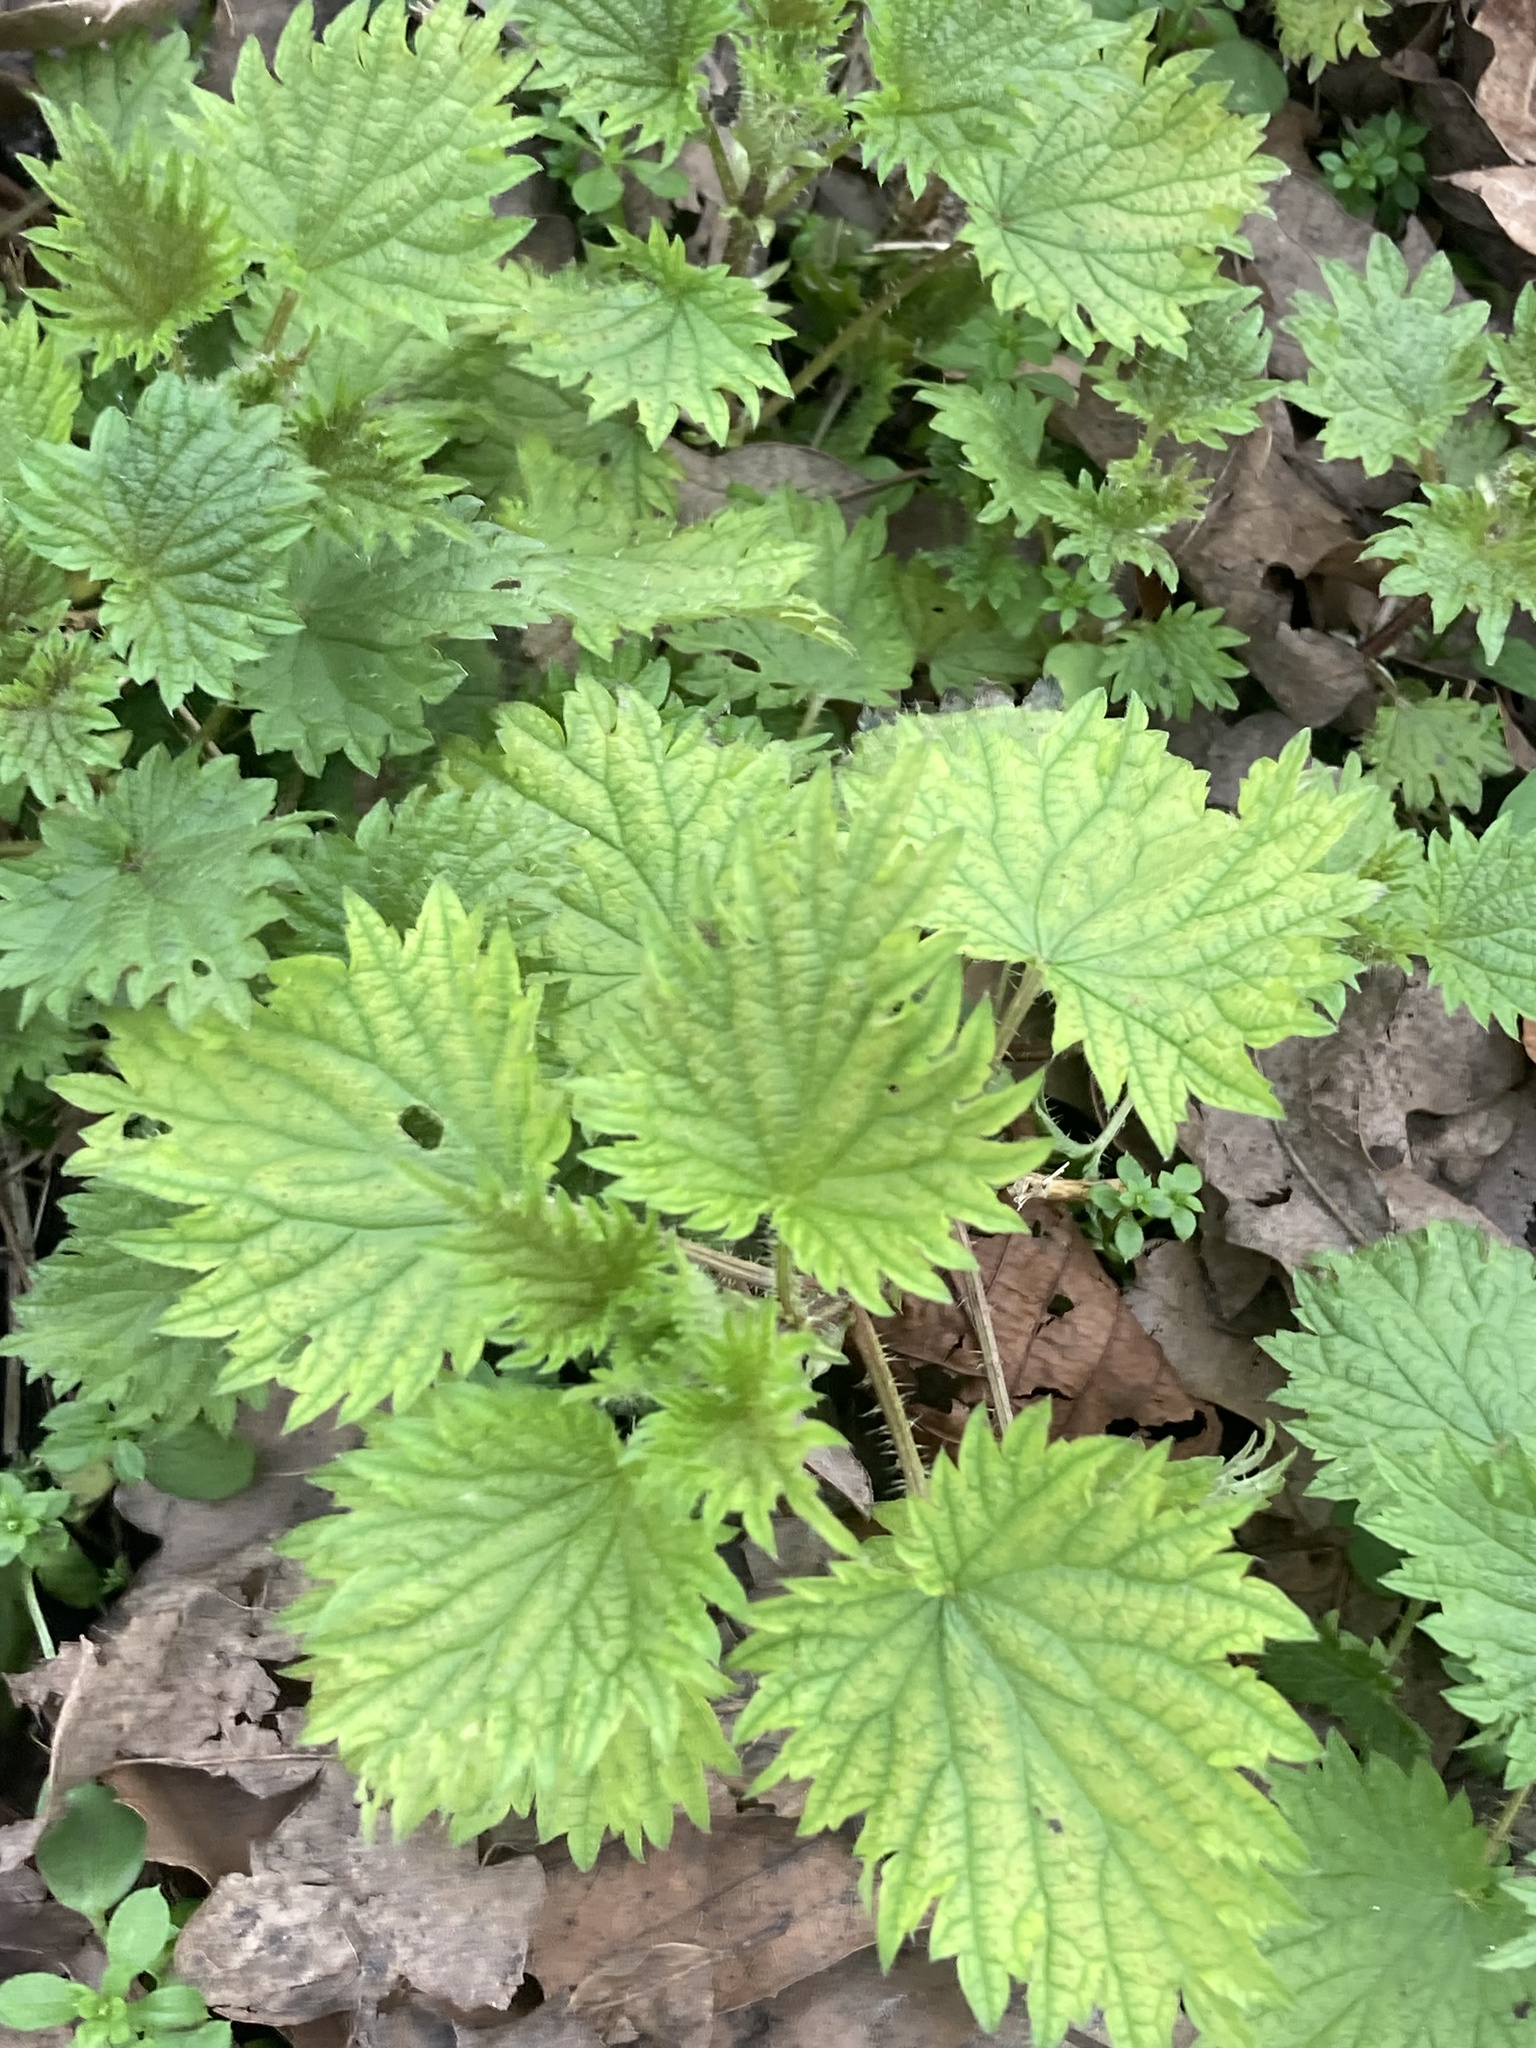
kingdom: Plantae
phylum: Tracheophyta
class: Magnoliopsida
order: Rosales
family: Urticaceae
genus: Urtica
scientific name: Urtica dioica
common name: Common nettle
